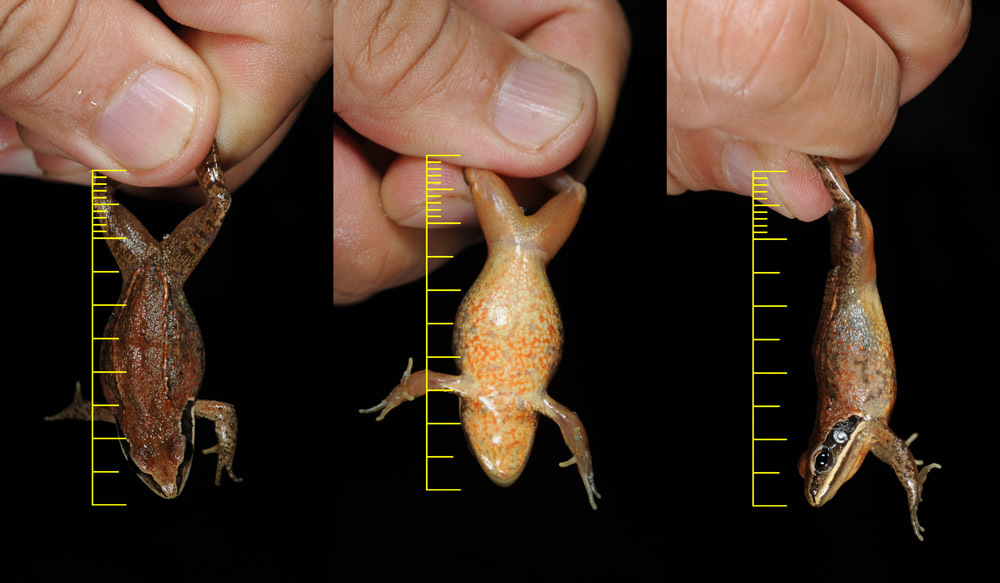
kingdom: Animalia
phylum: Chordata
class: Amphibia
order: Anura
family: Ranidae
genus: Rana
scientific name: Rana coreana
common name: Korean brown frog
